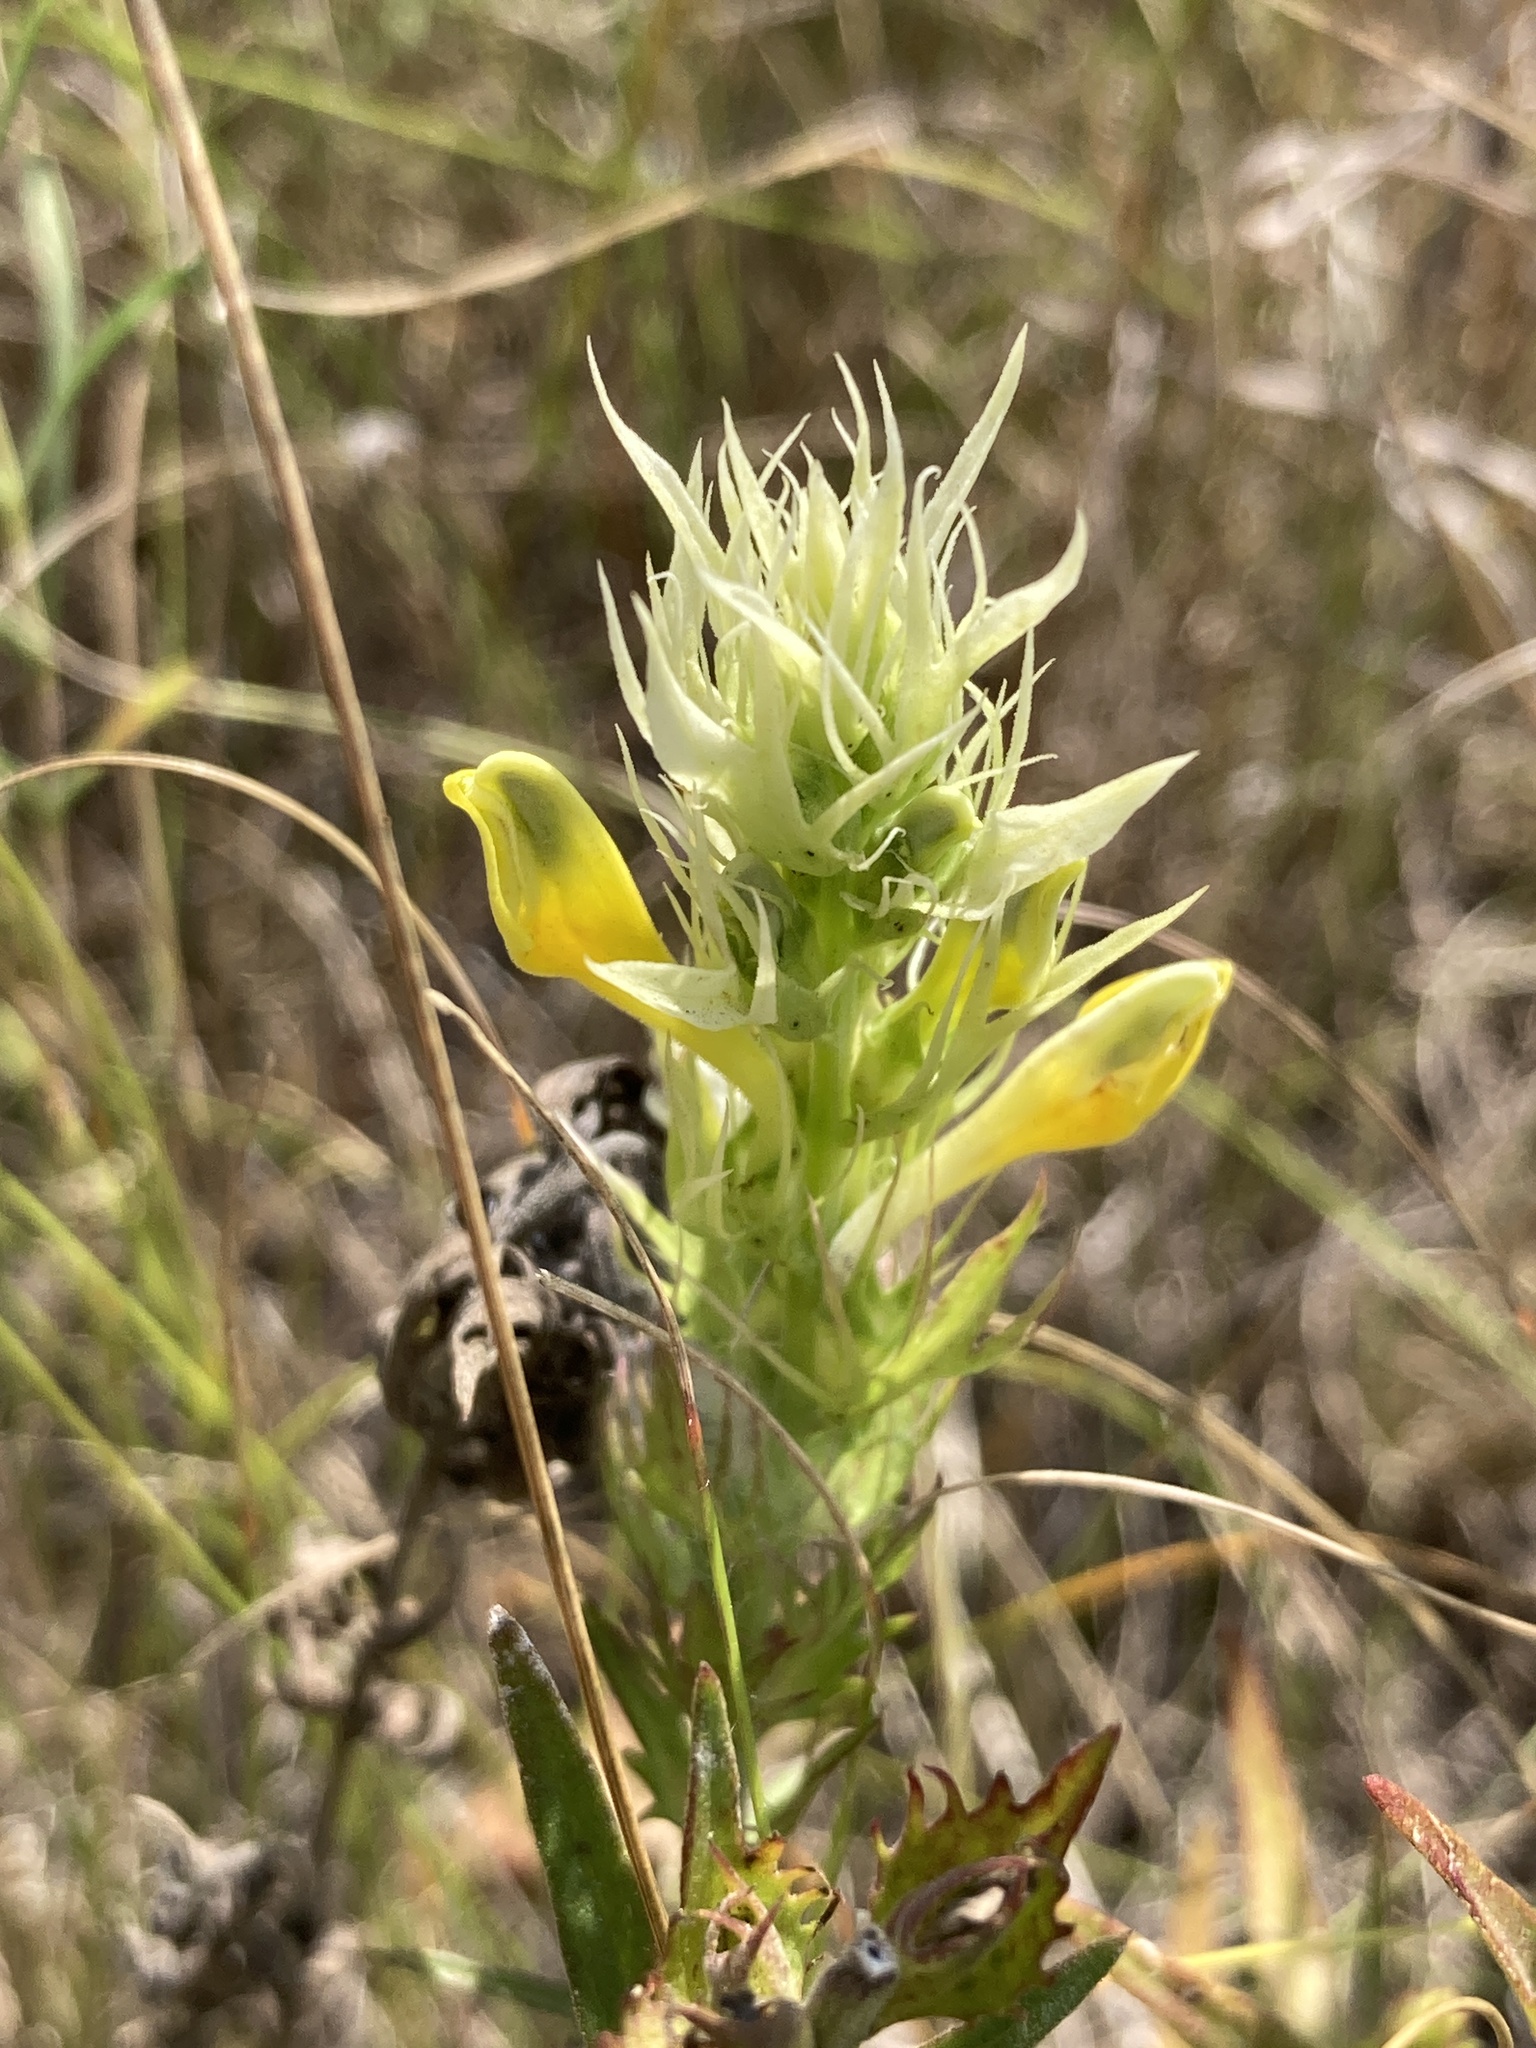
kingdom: Plantae
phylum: Tracheophyta
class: Magnoliopsida
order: Lamiales
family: Orobanchaceae
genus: Melampyrum
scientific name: Melampyrum arvense
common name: Field cow-wheat
